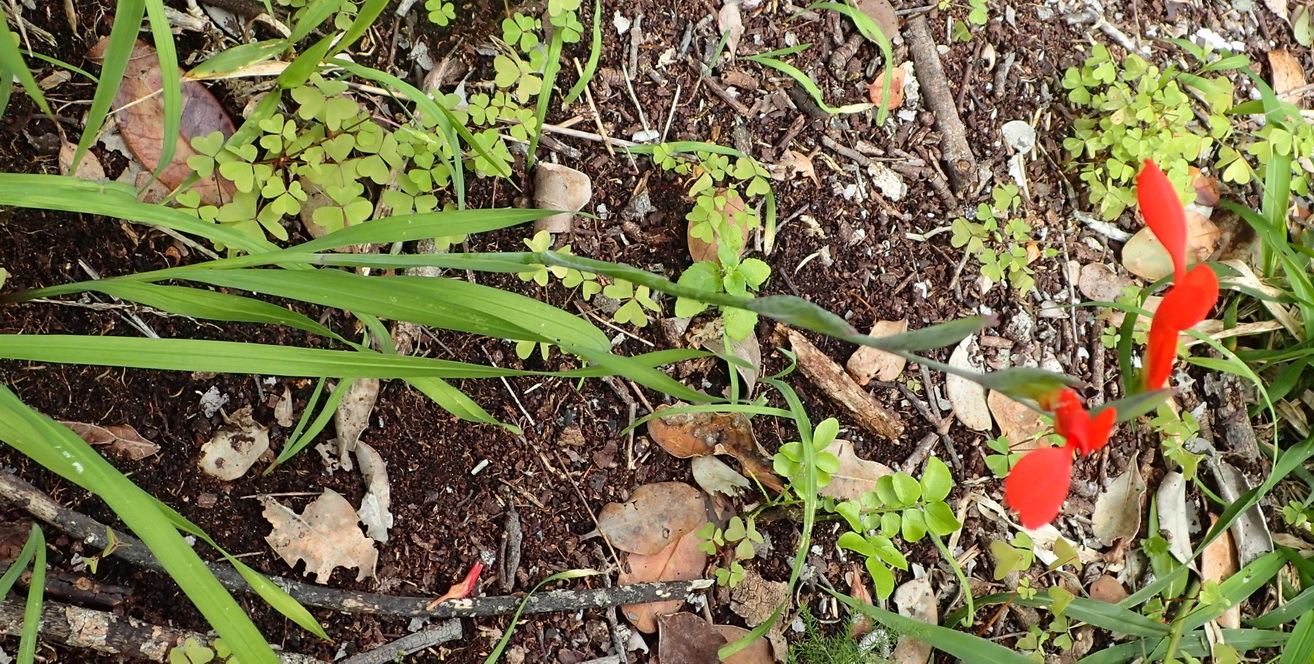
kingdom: Plantae
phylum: Tracheophyta
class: Liliopsida
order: Asparagales
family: Iridaceae
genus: Gladiolus
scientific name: Gladiolus cunonius
